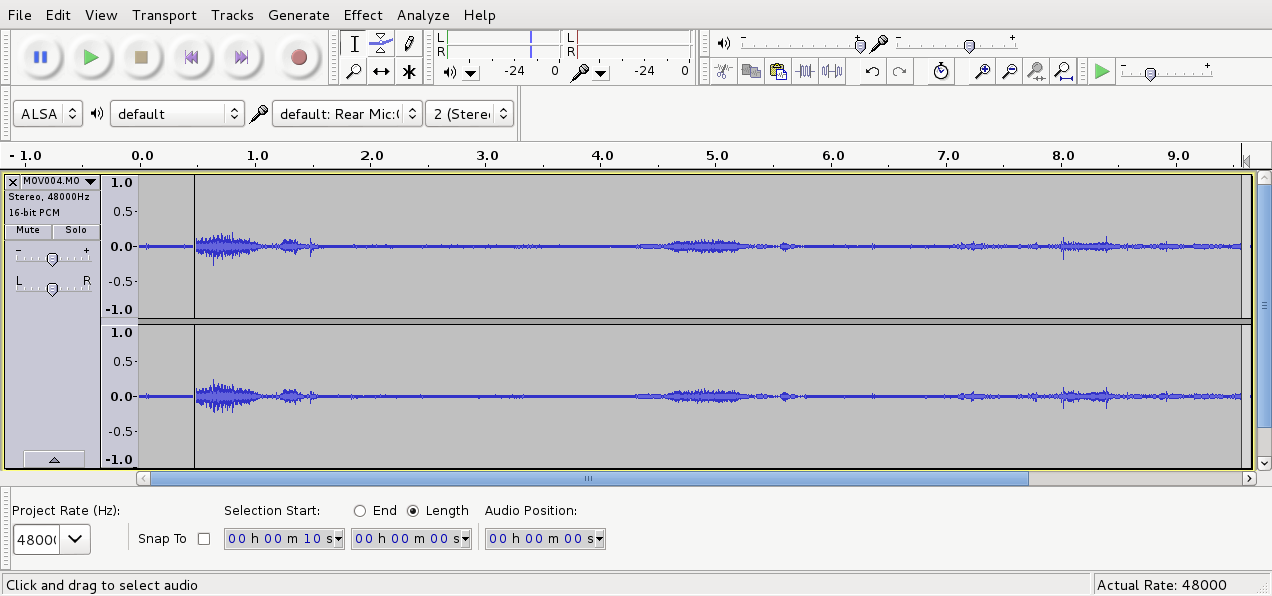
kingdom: Animalia
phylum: Chordata
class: Aves
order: Psittaciformes
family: Psittacidae
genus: Nestor
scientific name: Nestor meridionalis
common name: New zealand kaka
